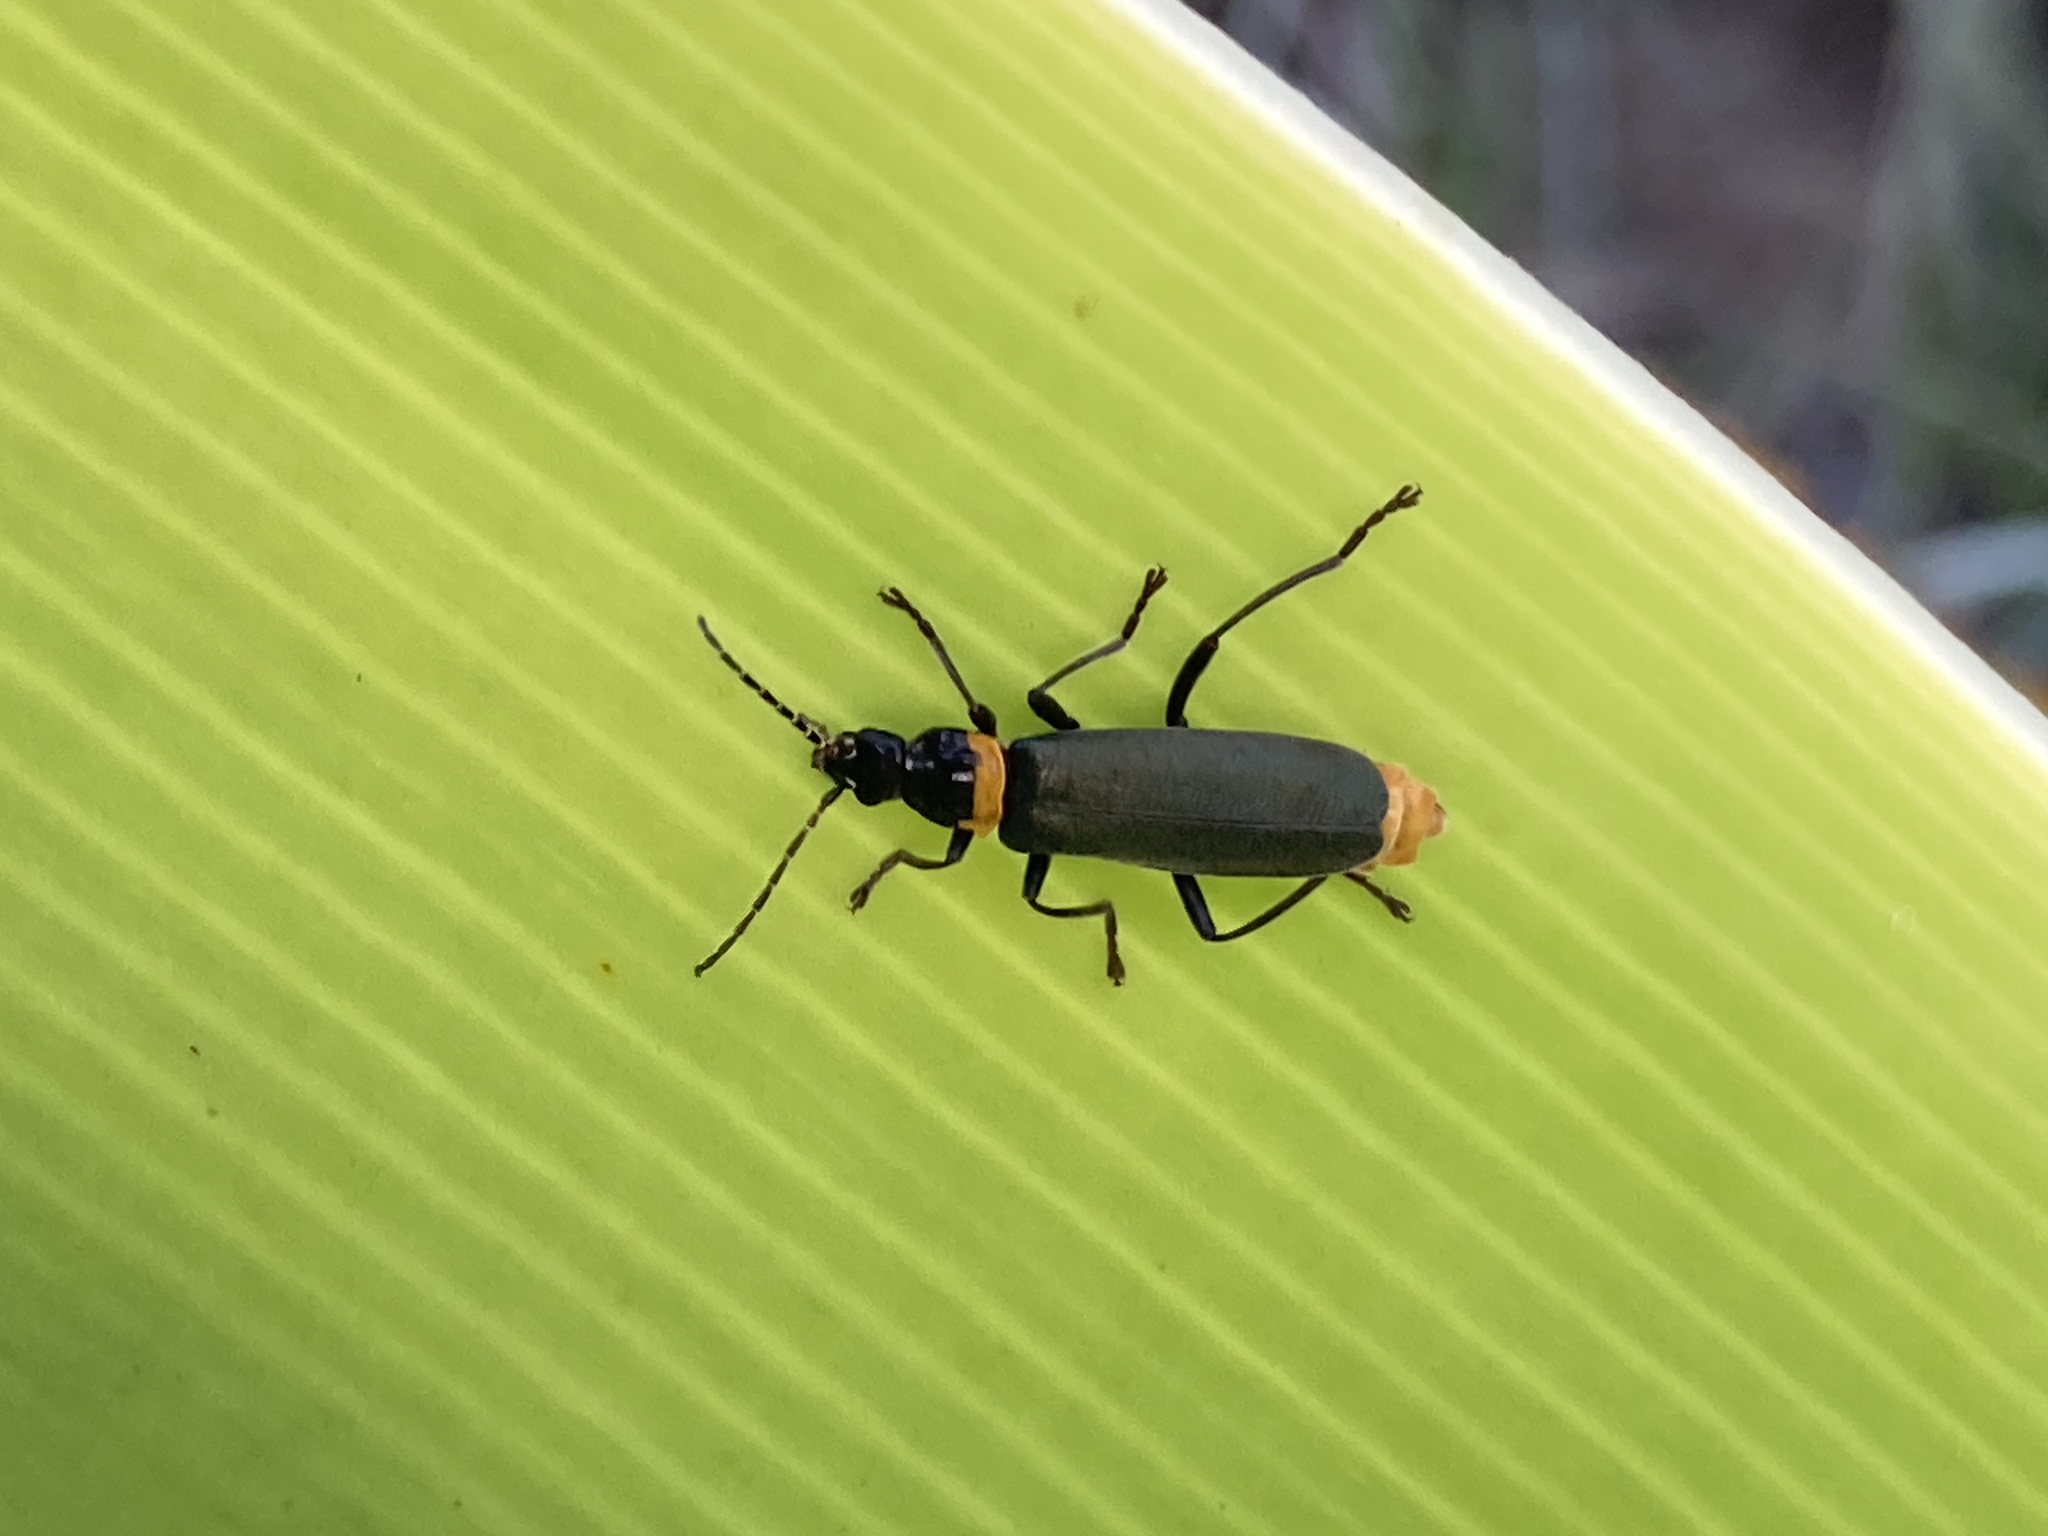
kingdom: Animalia
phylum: Arthropoda
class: Insecta
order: Coleoptera
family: Cantharidae
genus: Chauliognathus
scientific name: Chauliognathus
